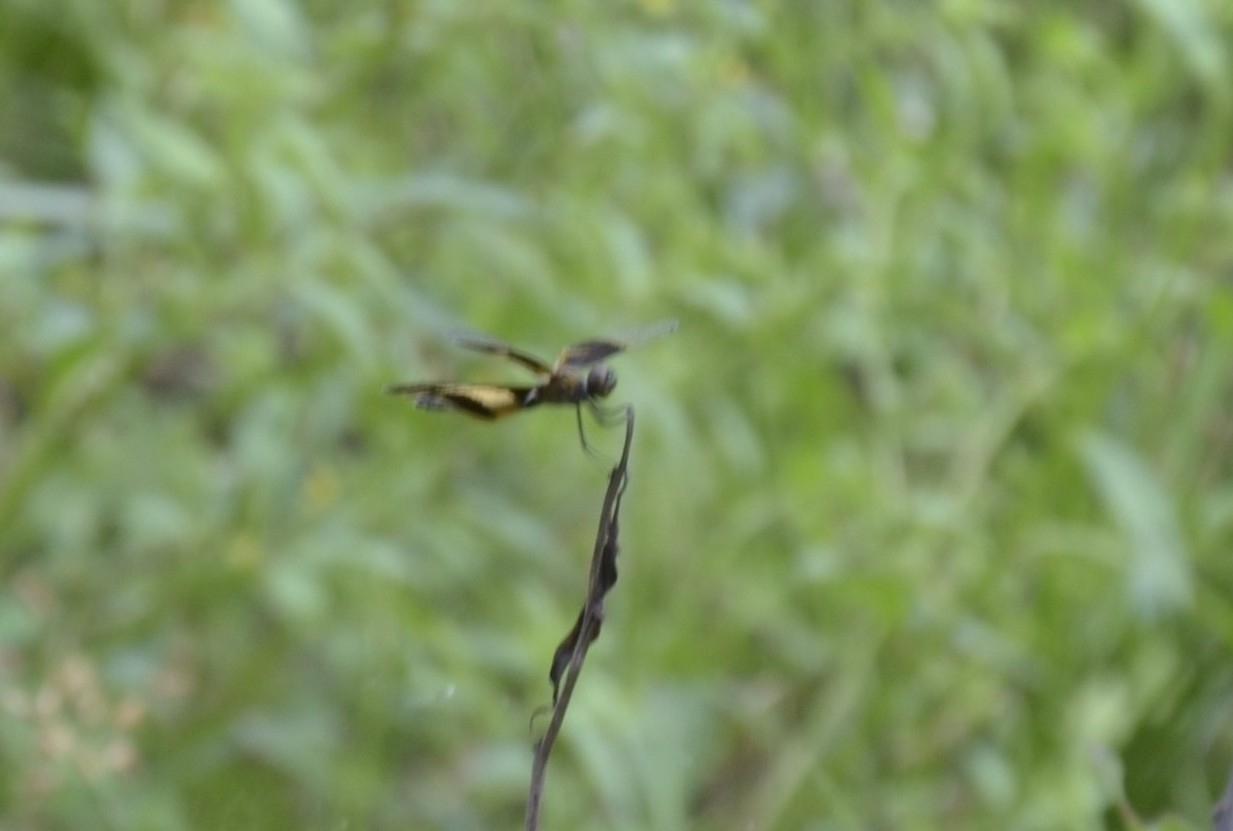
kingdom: Animalia
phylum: Arthropoda
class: Insecta
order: Odonata
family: Libellulidae
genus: Rhyothemis
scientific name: Rhyothemis variegata
